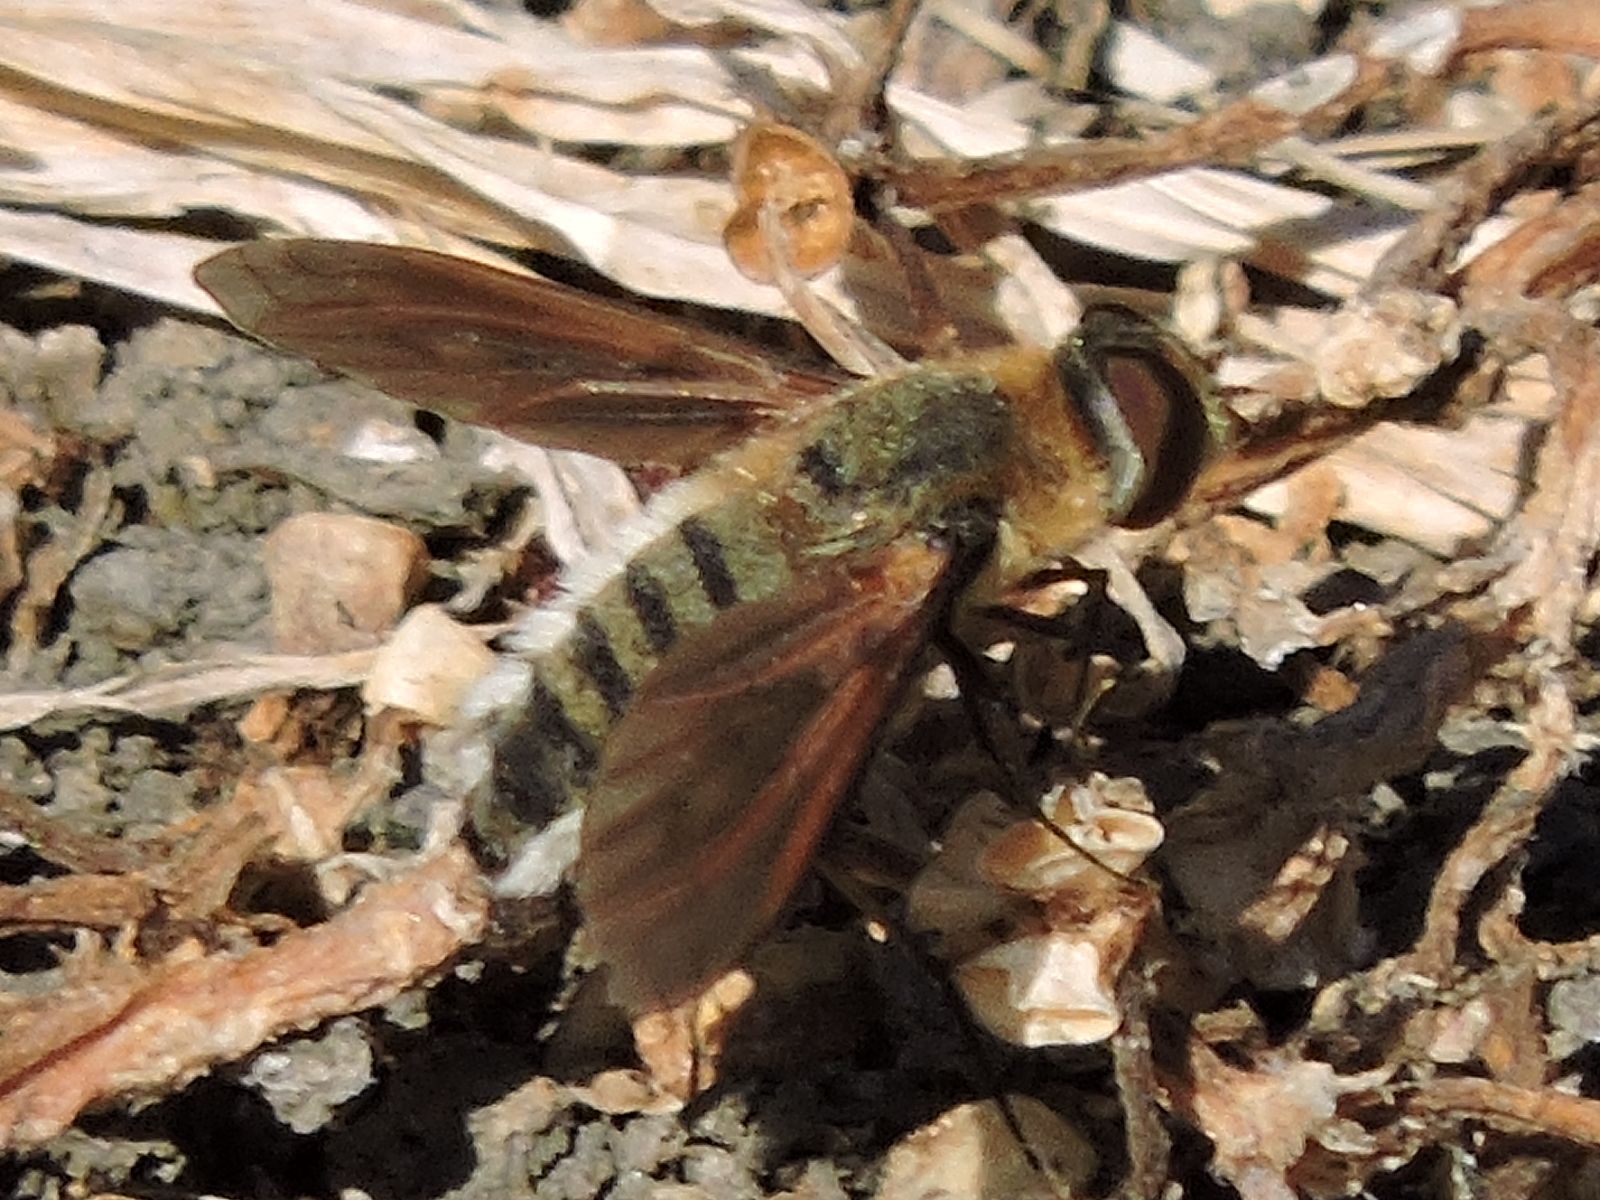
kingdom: Animalia
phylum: Arthropoda
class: Insecta
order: Diptera
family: Bombyliidae
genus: Poecilanthrax
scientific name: Poecilanthrax lucifer
